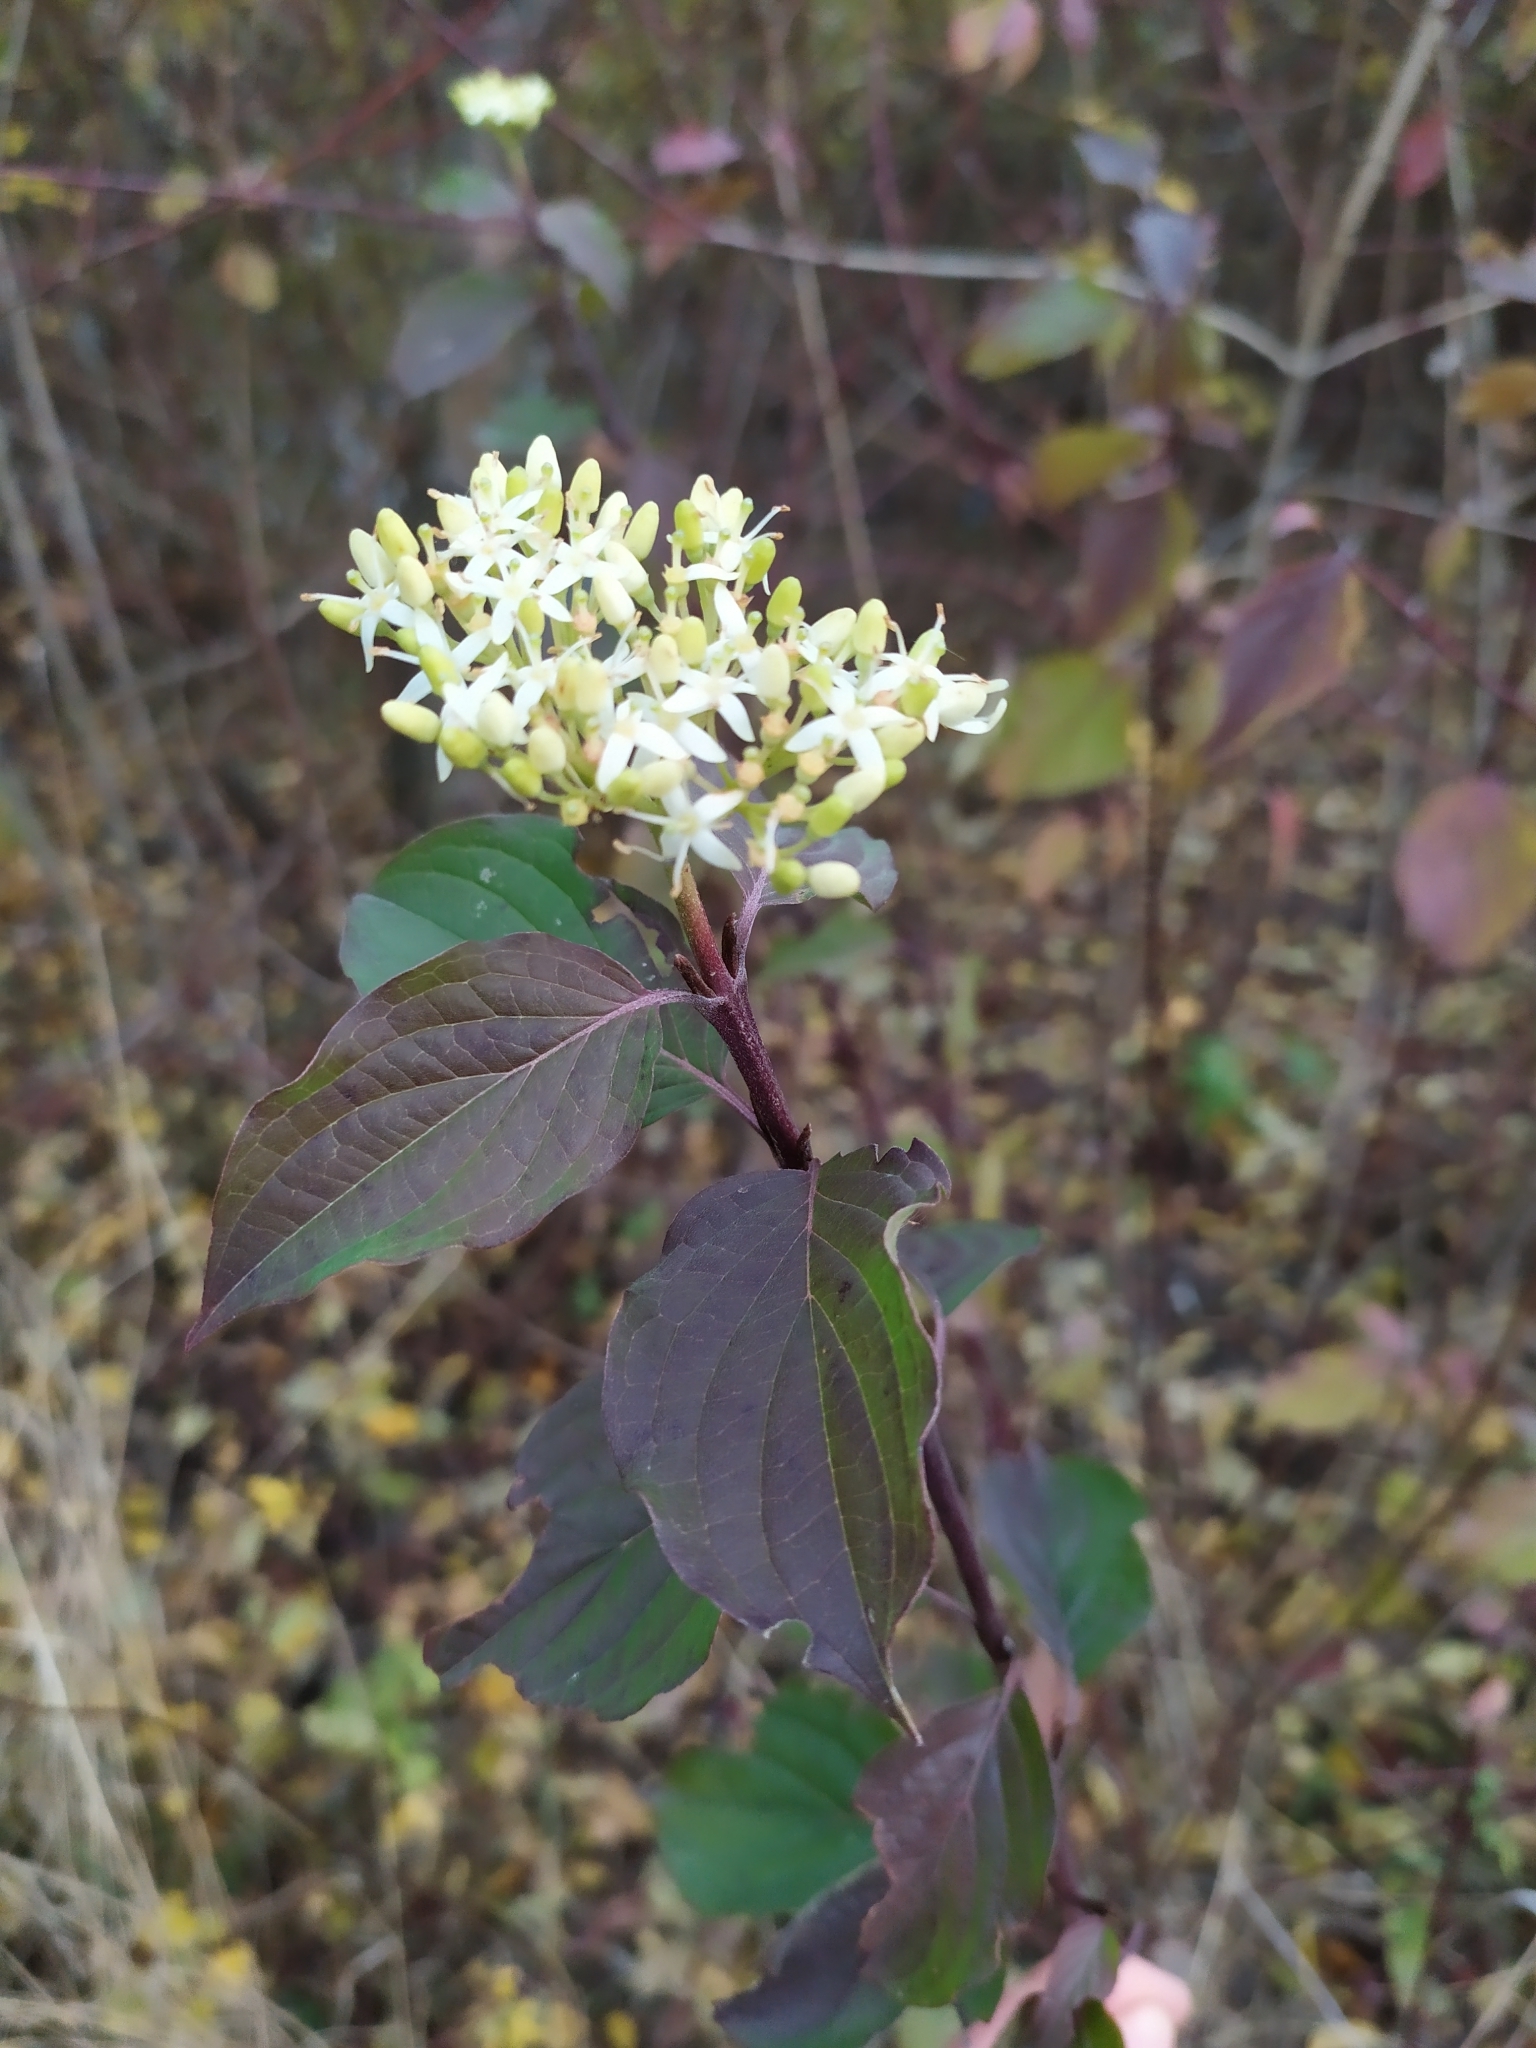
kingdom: Plantae
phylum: Tracheophyta
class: Magnoliopsida
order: Cornales
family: Cornaceae
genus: Cornus
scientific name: Cornus sanguinea
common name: Dogwood
